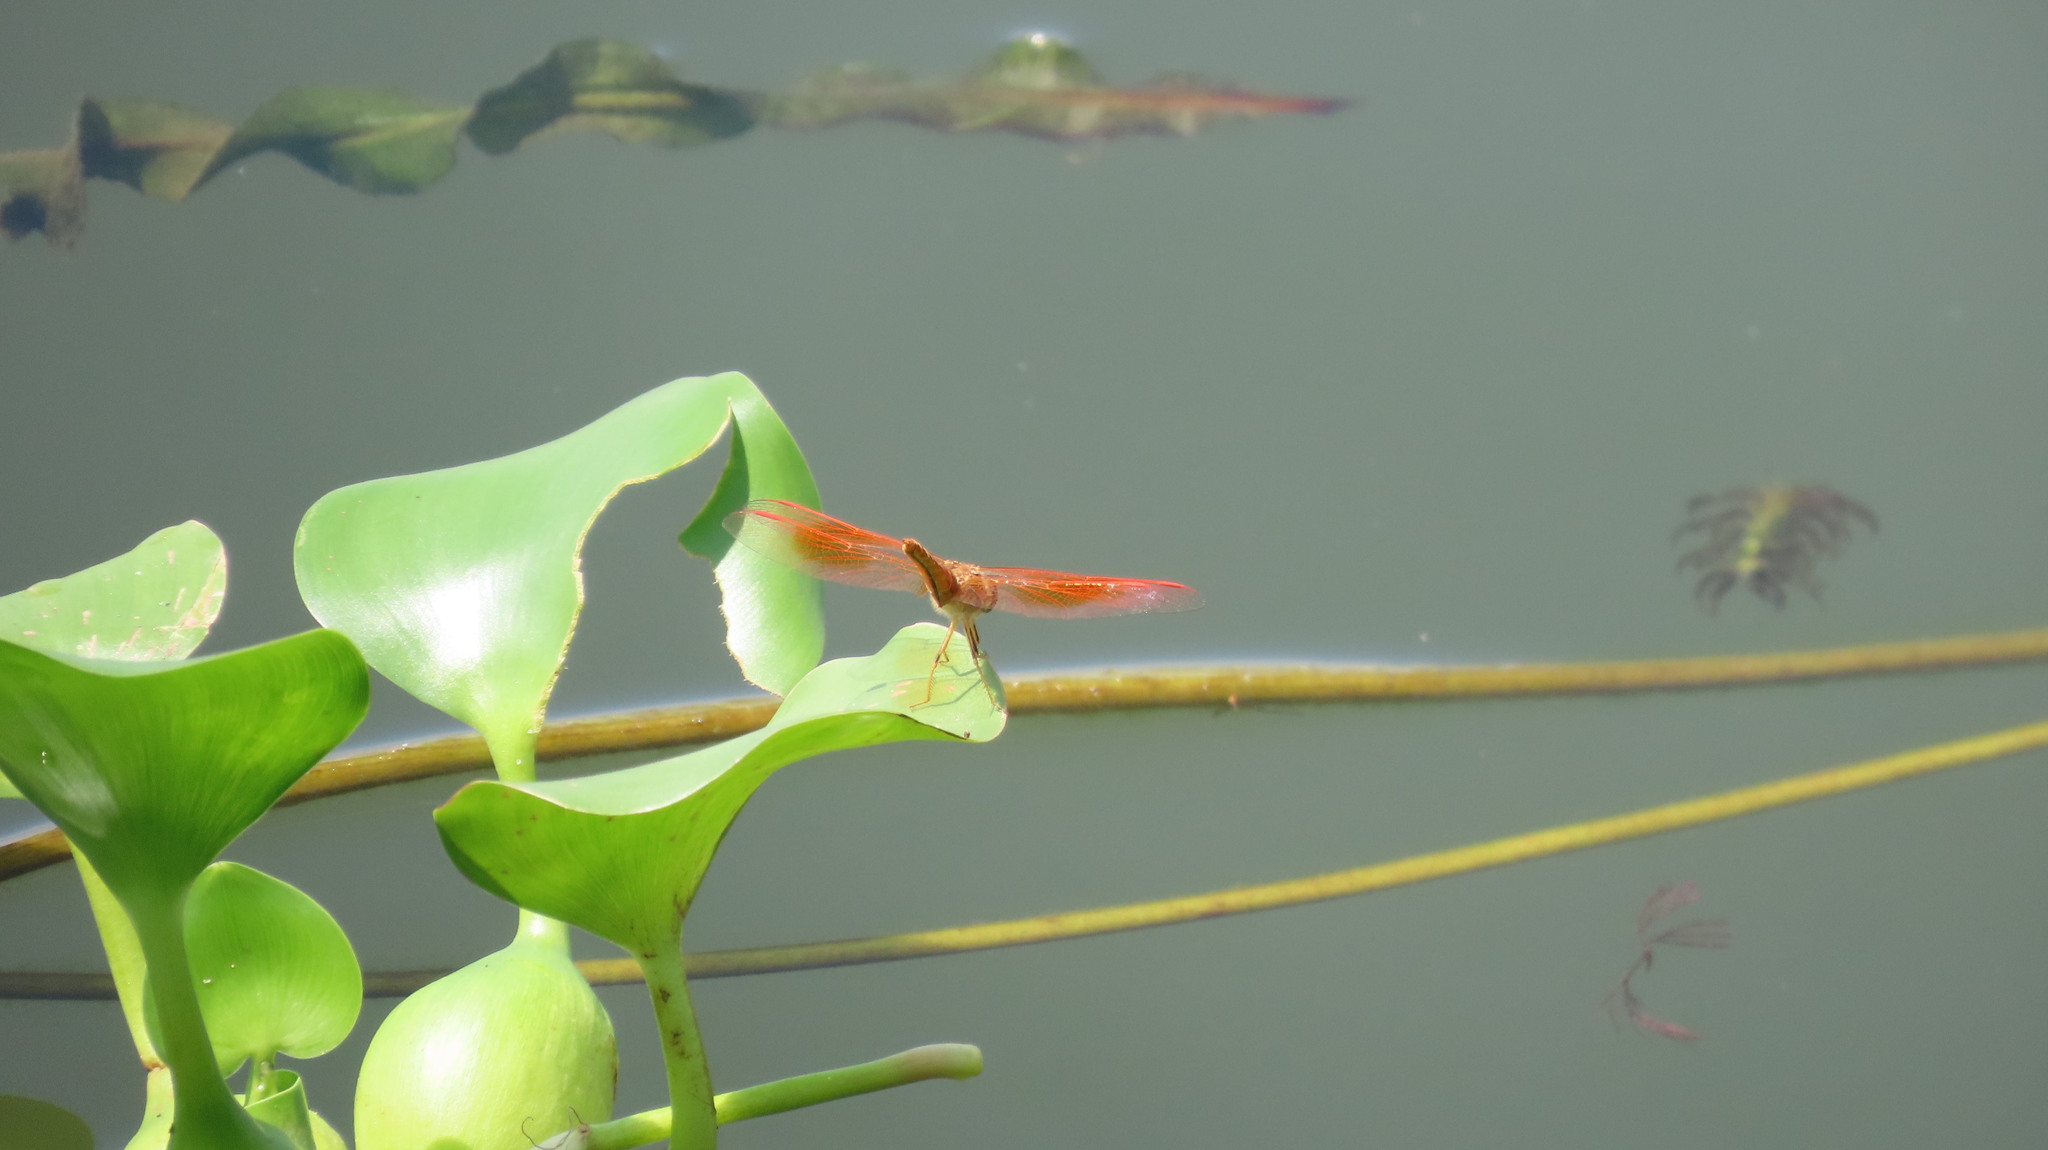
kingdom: Animalia
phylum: Arthropoda
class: Insecta
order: Odonata
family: Libellulidae
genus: Brachythemis
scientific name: Brachythemis contaminata
